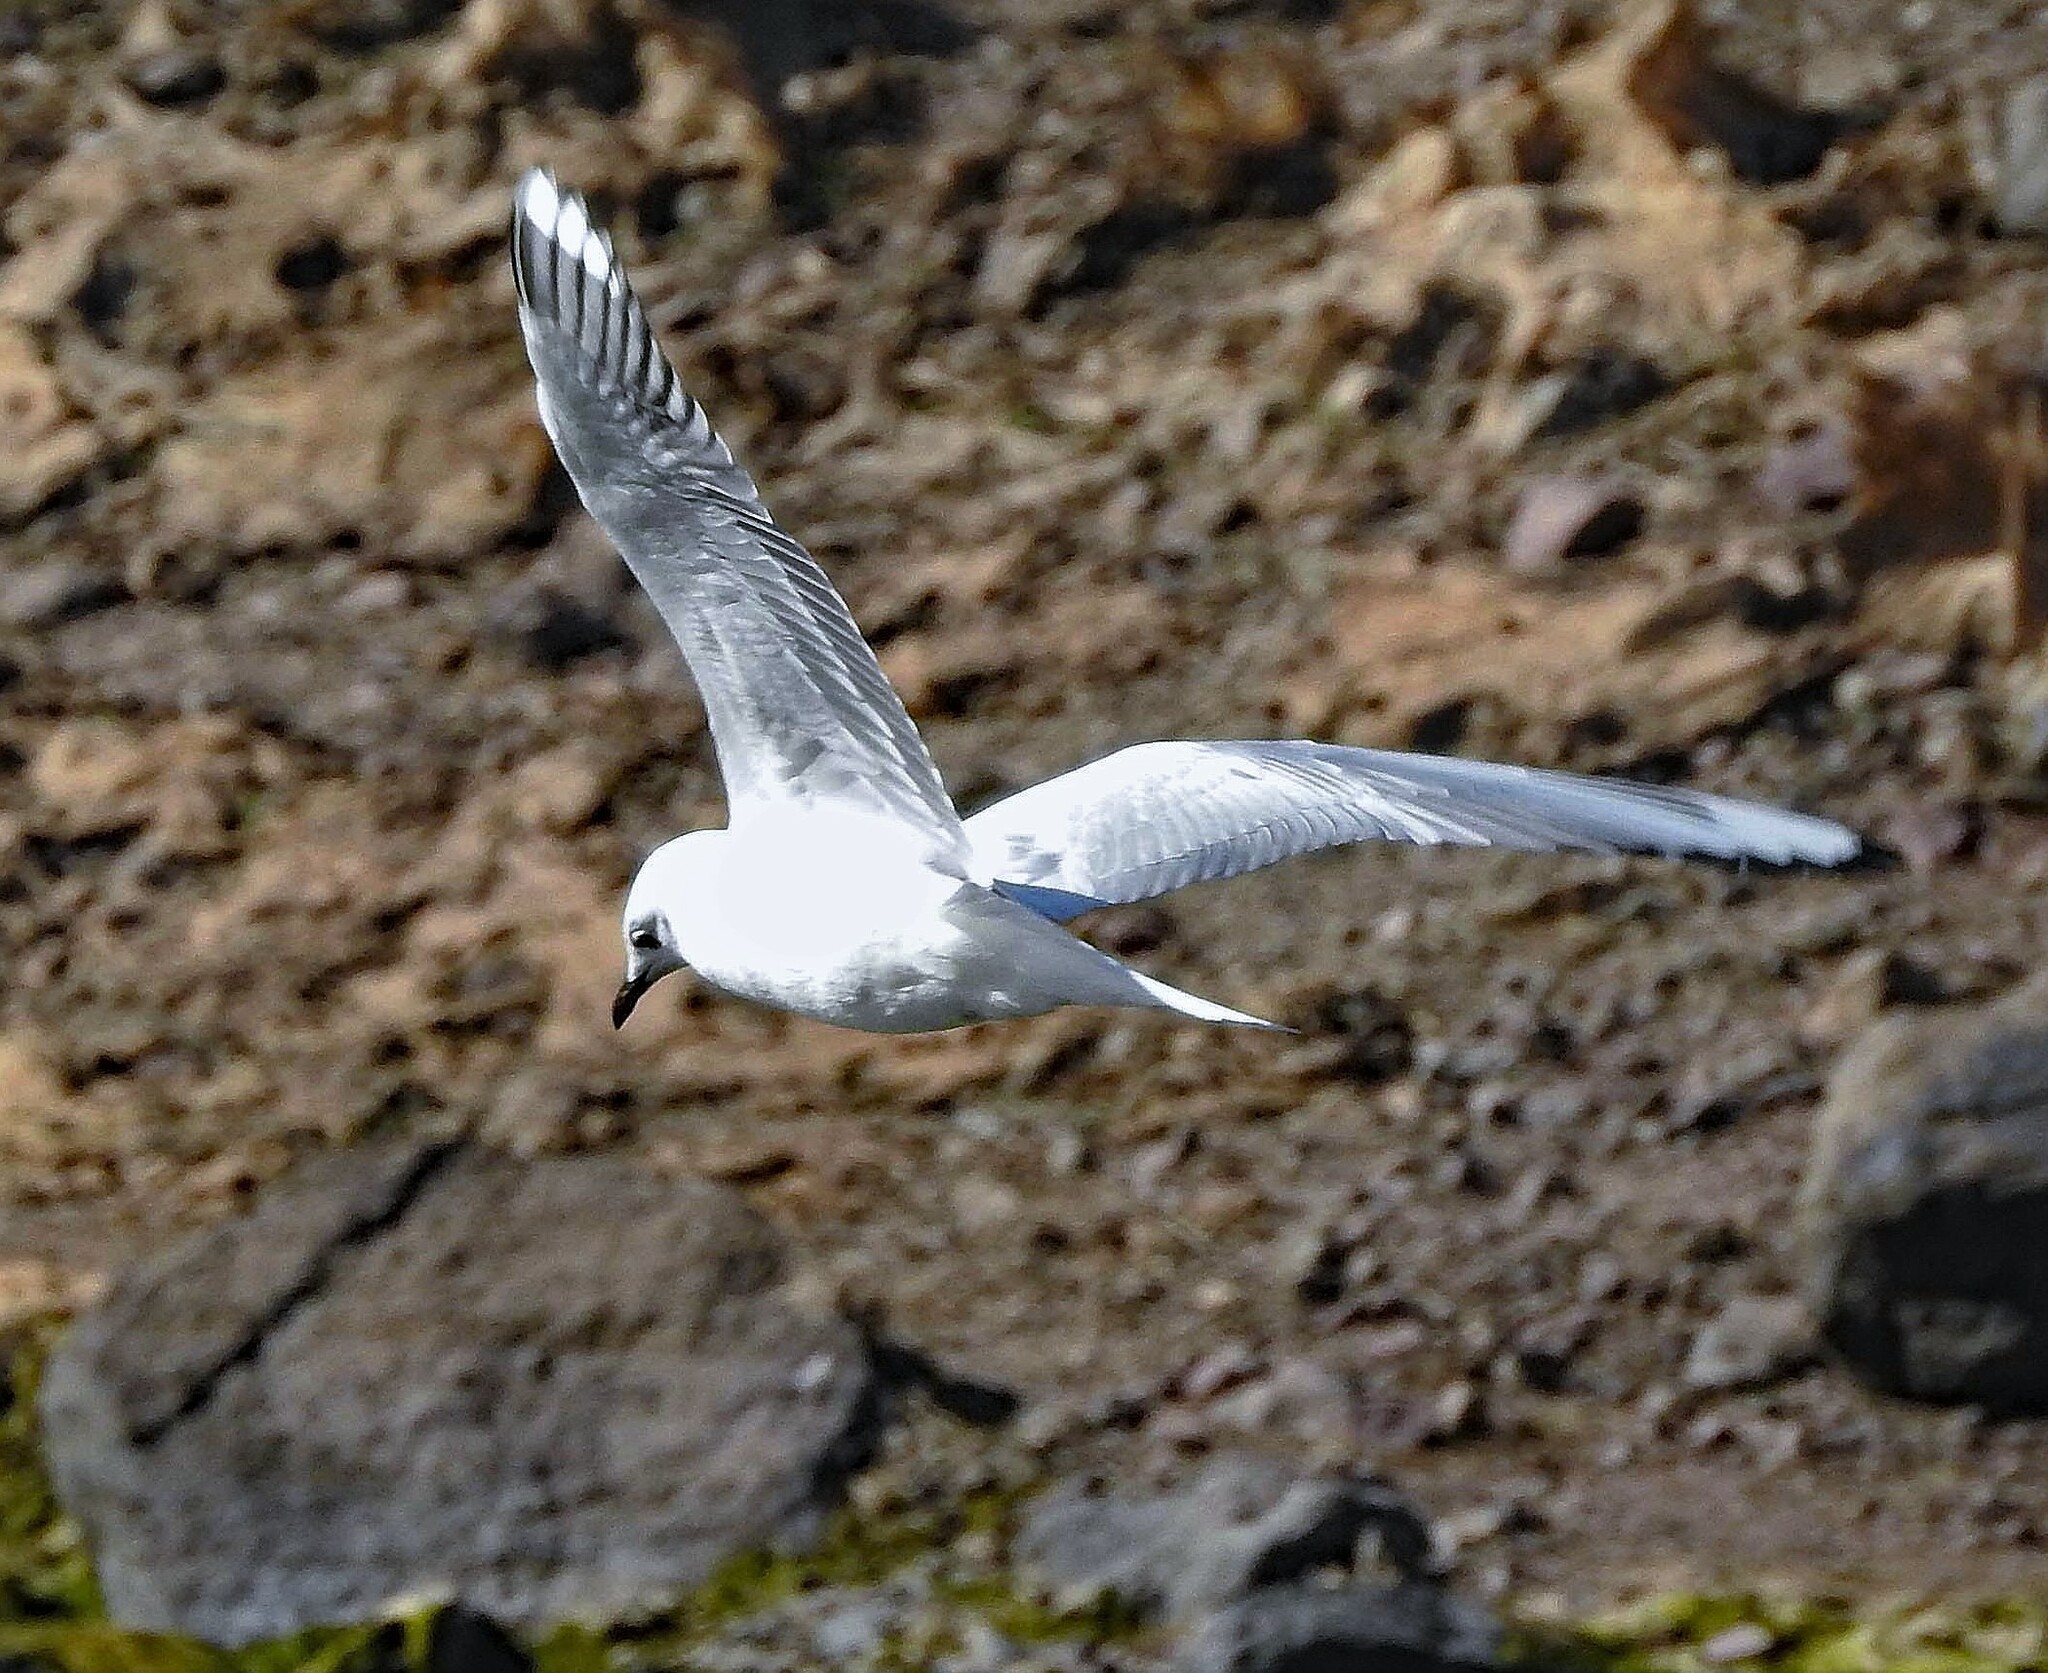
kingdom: Animalia
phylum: Chordata
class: Aves
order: Charadriiformes
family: Laridae
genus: Chroicocephalus
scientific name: Chroicocephalus serranus
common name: Andean gull
